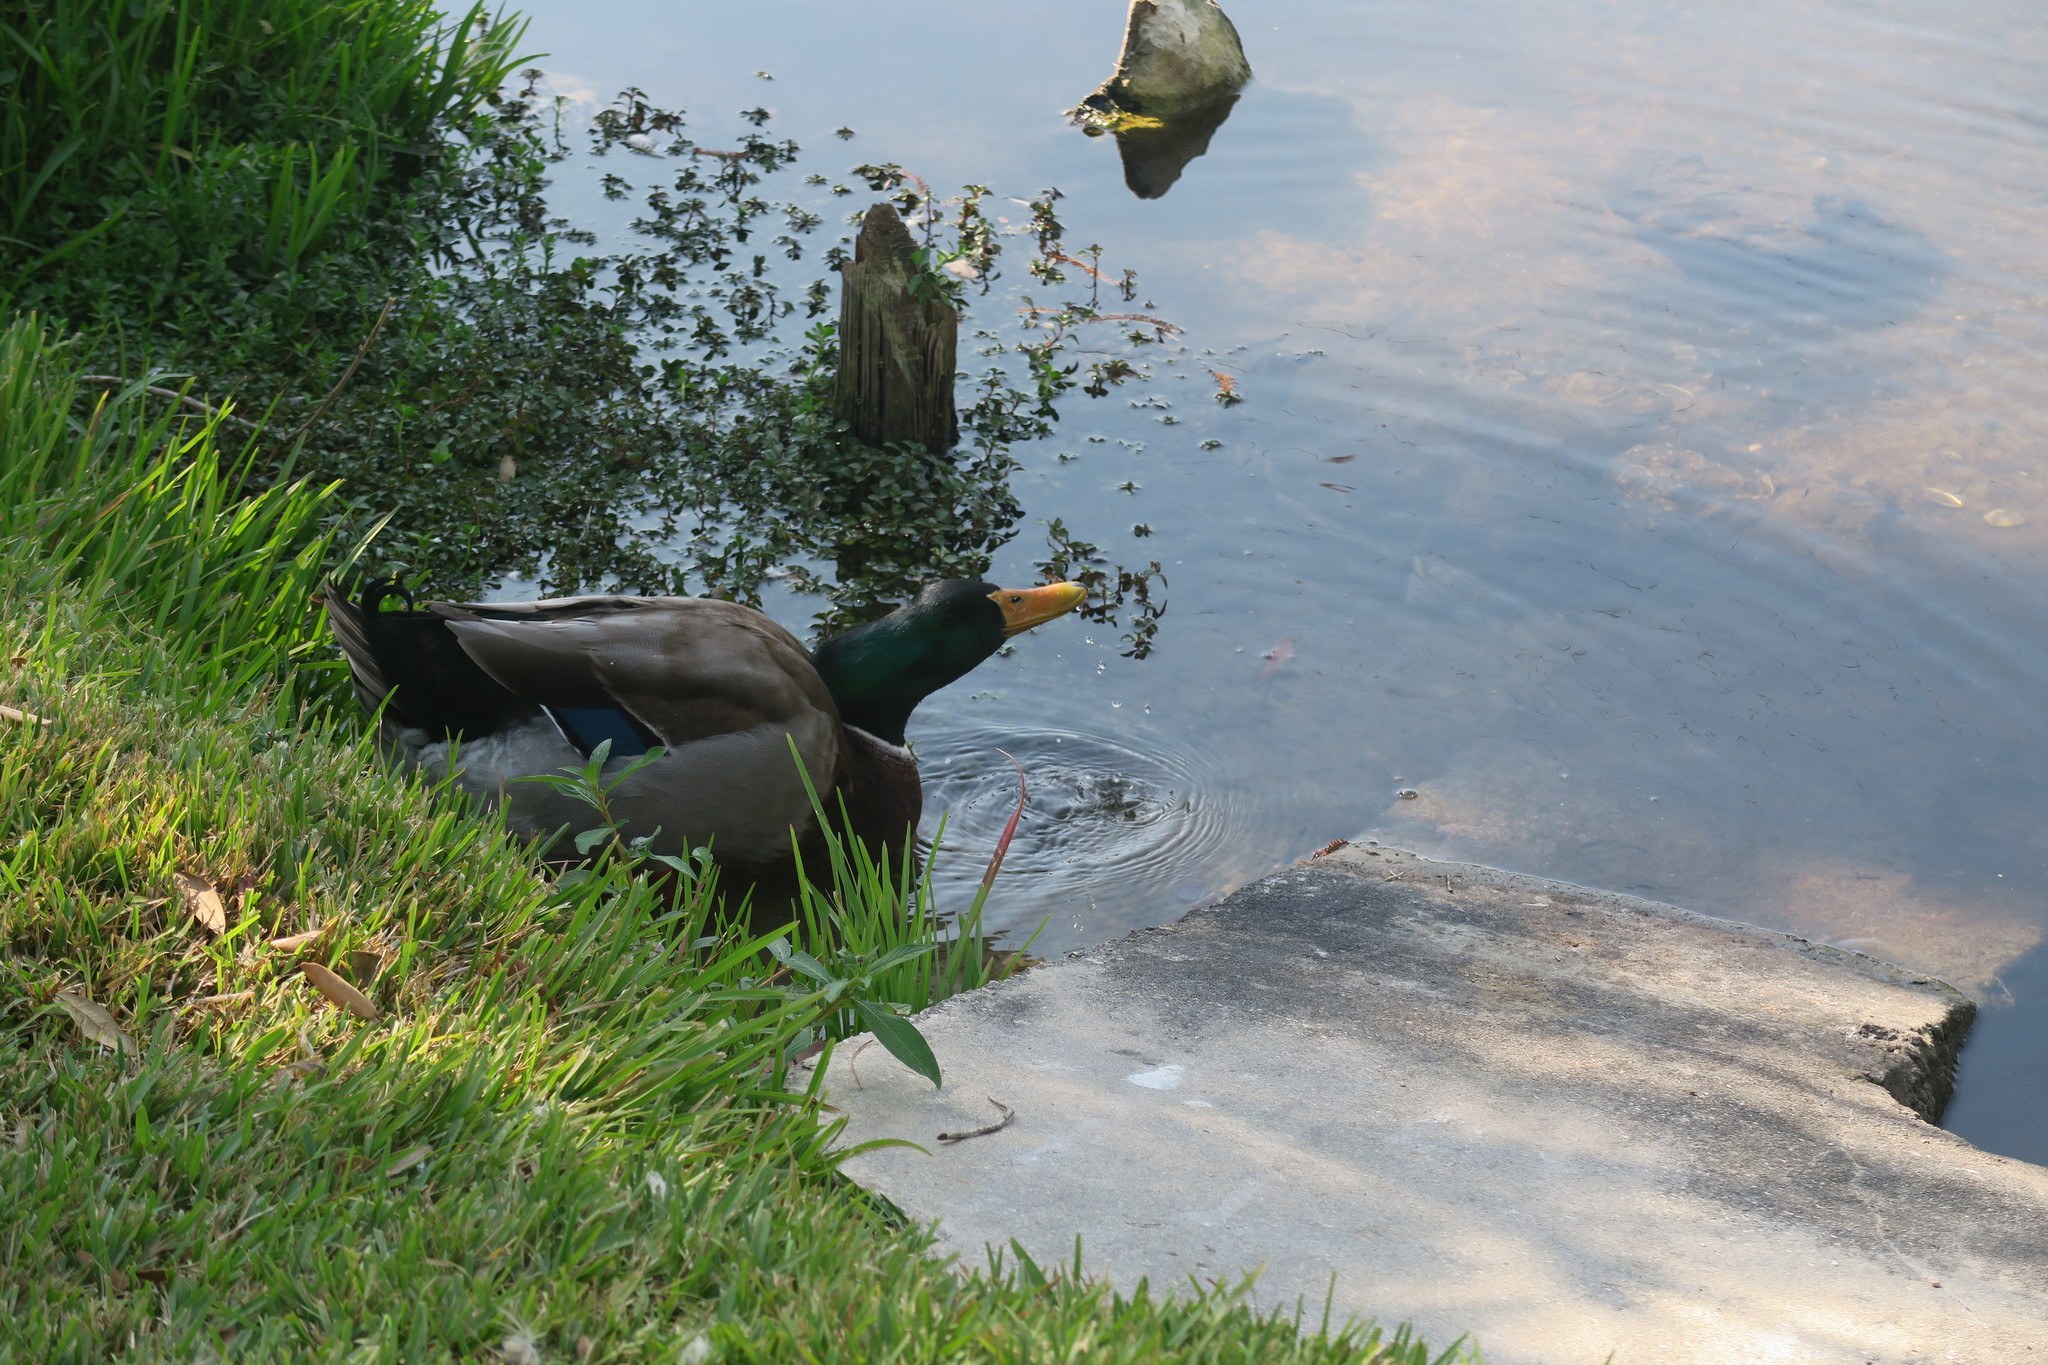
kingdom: Animalia
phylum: Chordata
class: Aves
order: Anseriformes
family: Anatidae
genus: Anas
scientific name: Anas platyrhynchos
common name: Mallard
